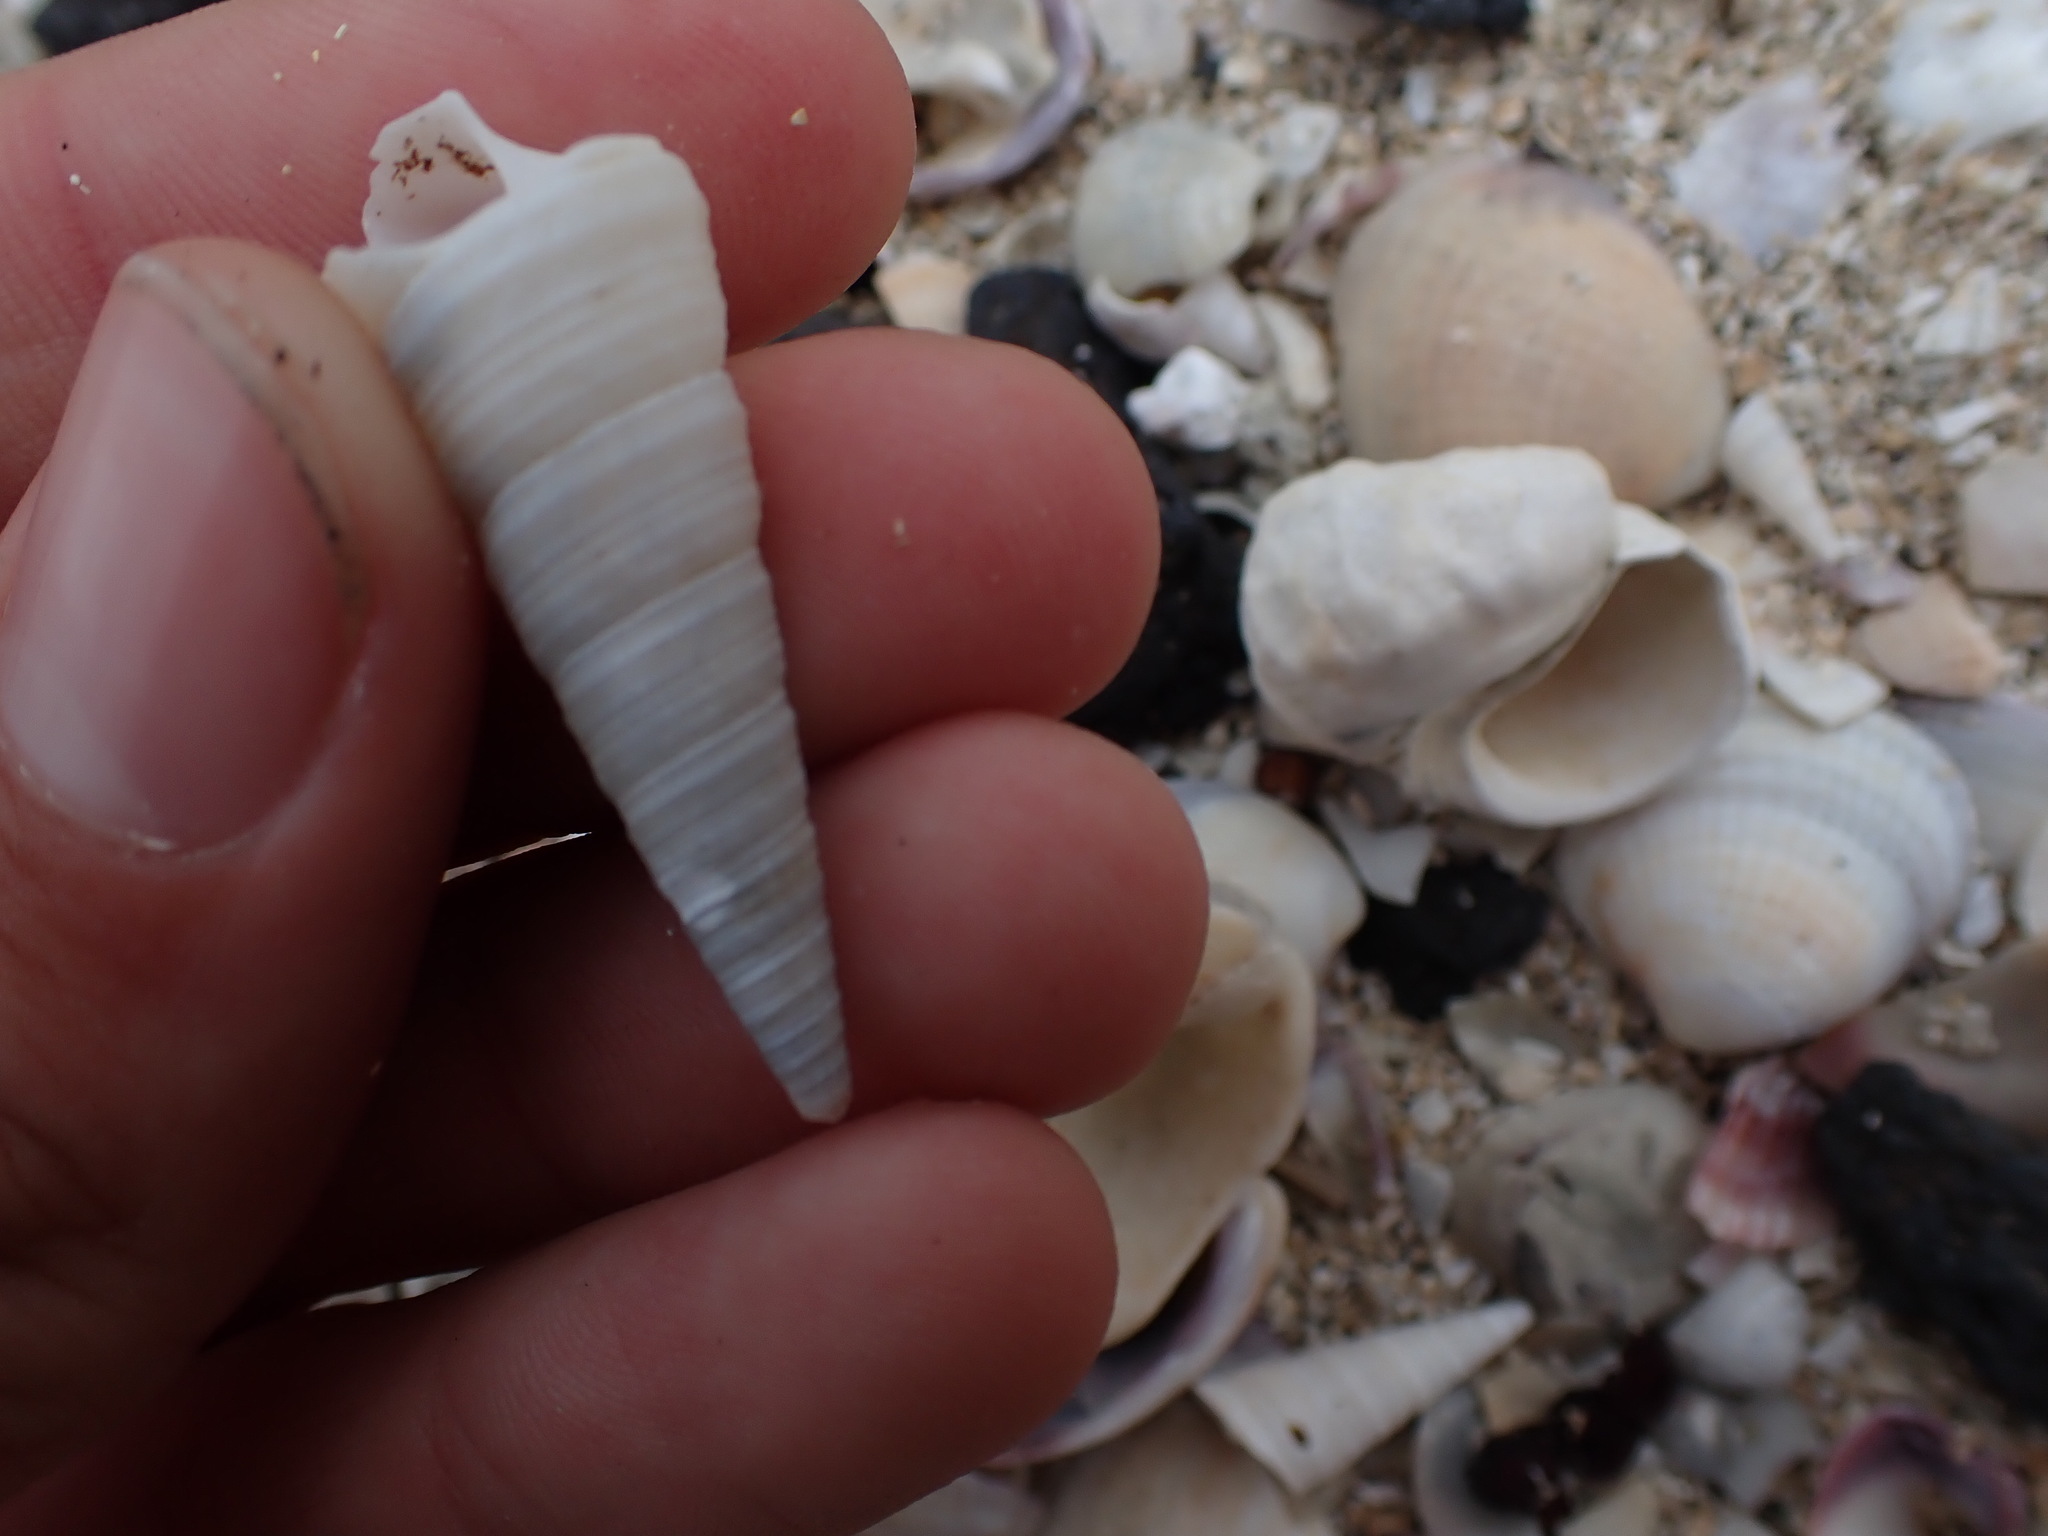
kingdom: Animalia
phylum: Mollusca
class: Gastropoda
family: Turritellidae
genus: Maoricolpus
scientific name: Maoricolpus roseus
